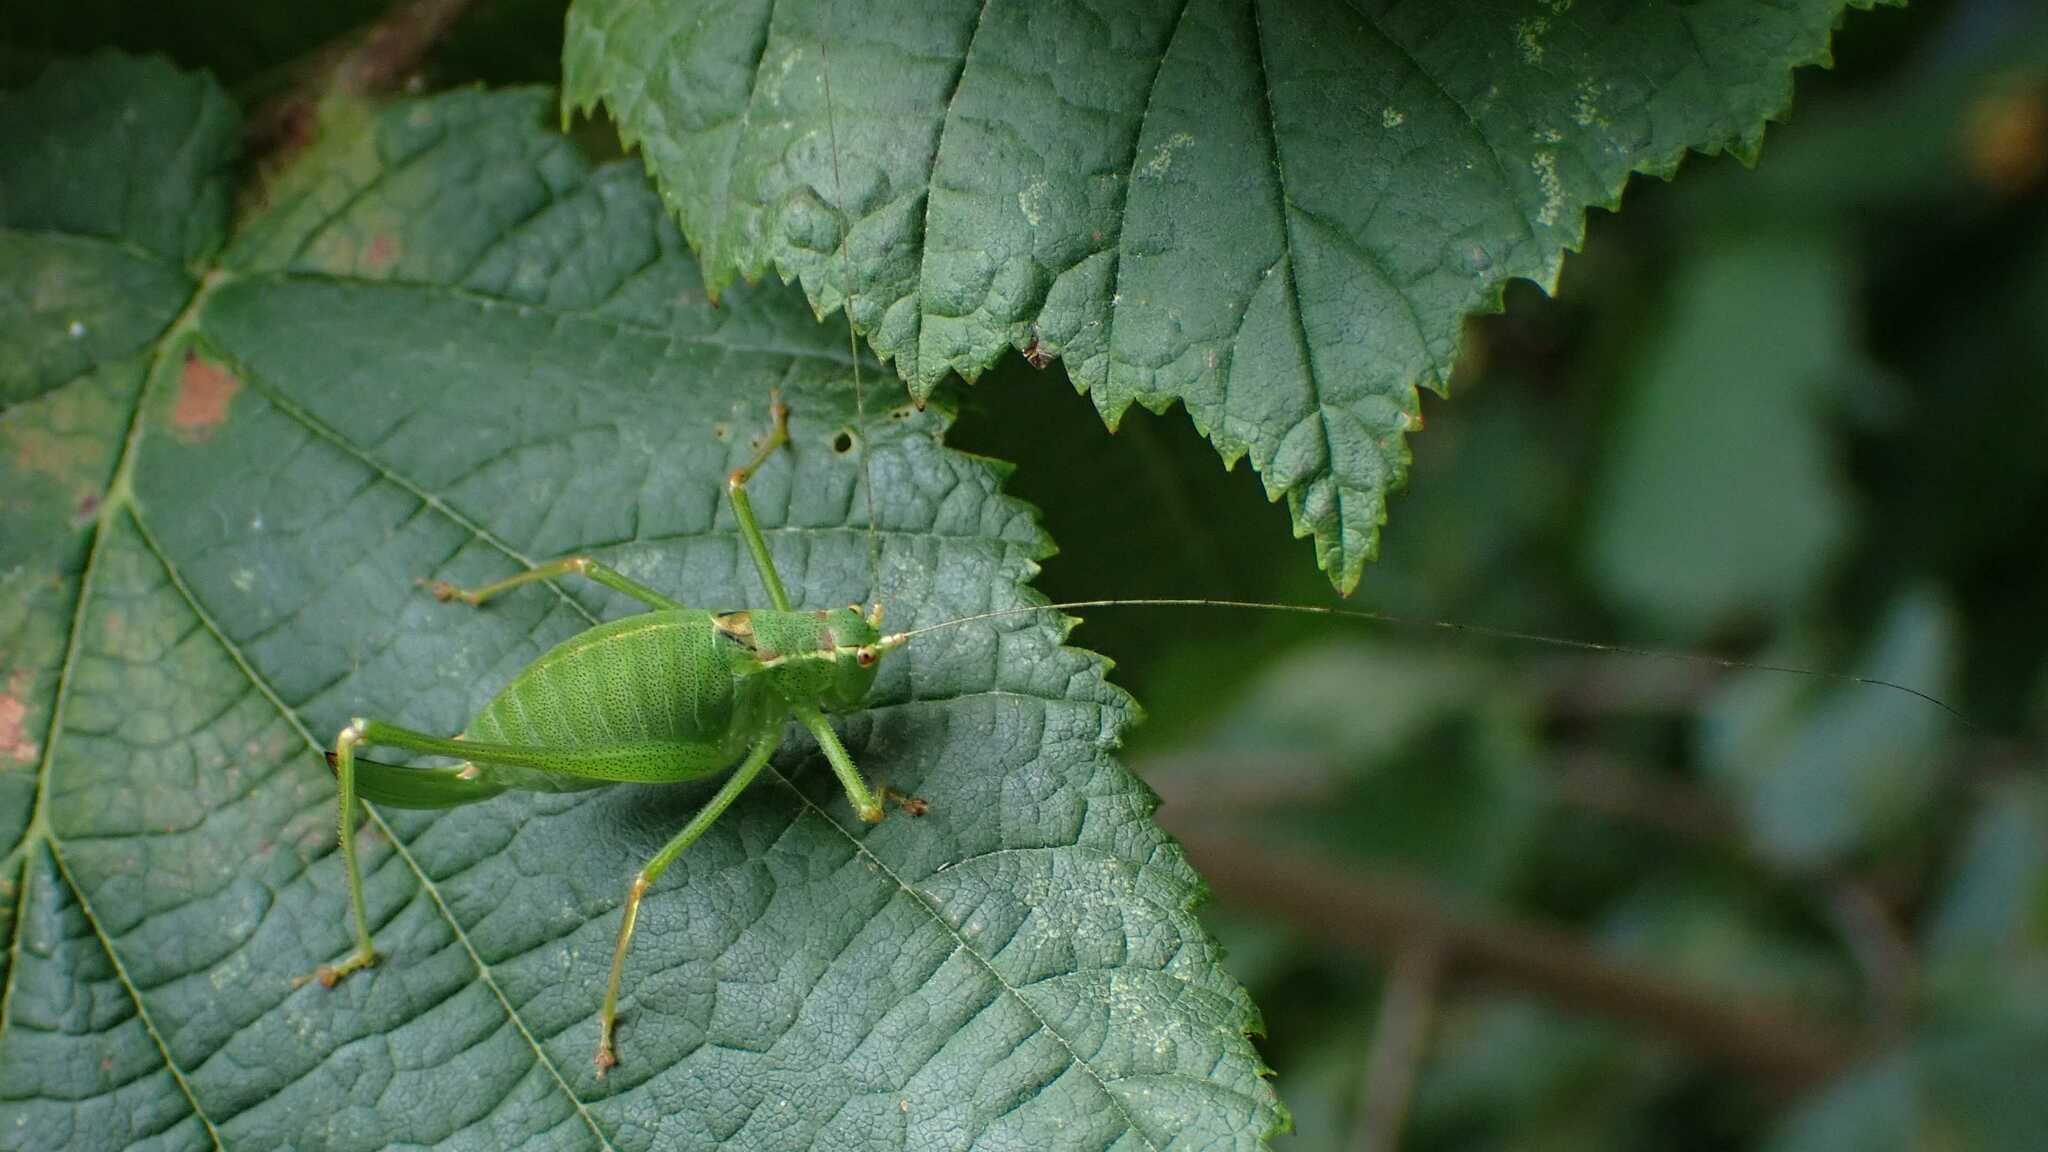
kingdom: Animalia
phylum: Arthropoda
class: Insecta
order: Orthoptera
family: Tettigoniidae
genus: Leptophyes
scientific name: Leptophyes punctatissima
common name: Speckled bush-cricket
